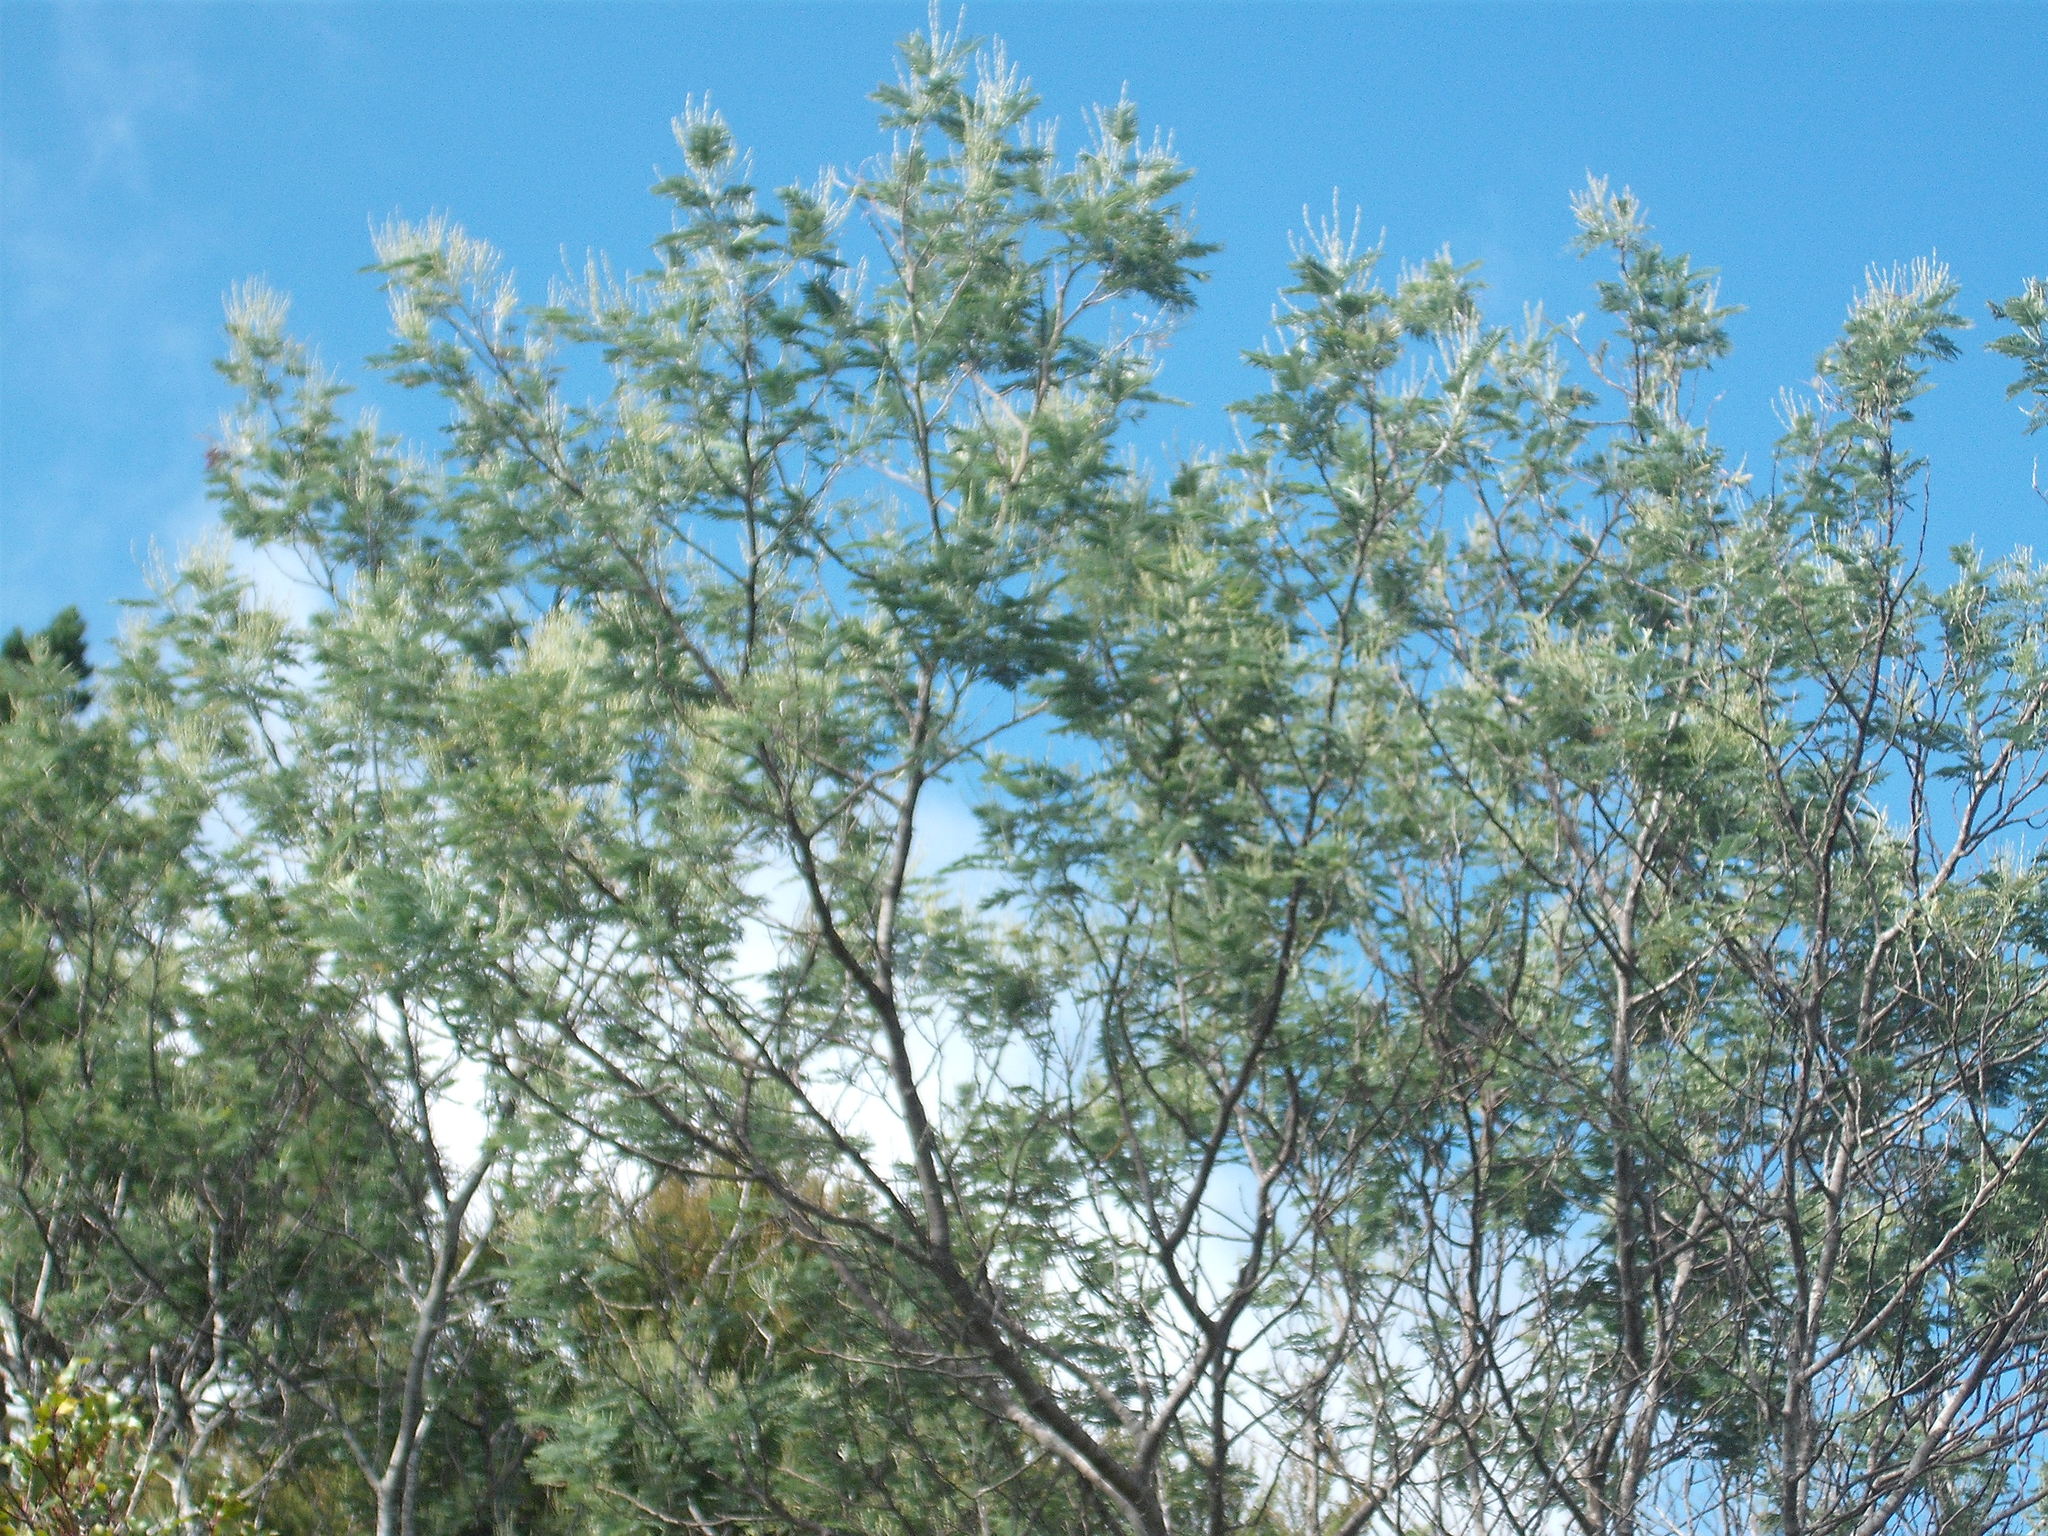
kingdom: Plantae
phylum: Tracheophyta
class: Magnoliopsida
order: Fabales
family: Fabaceae
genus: Acacia
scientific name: Acacia dealbata
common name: Silver wattle
